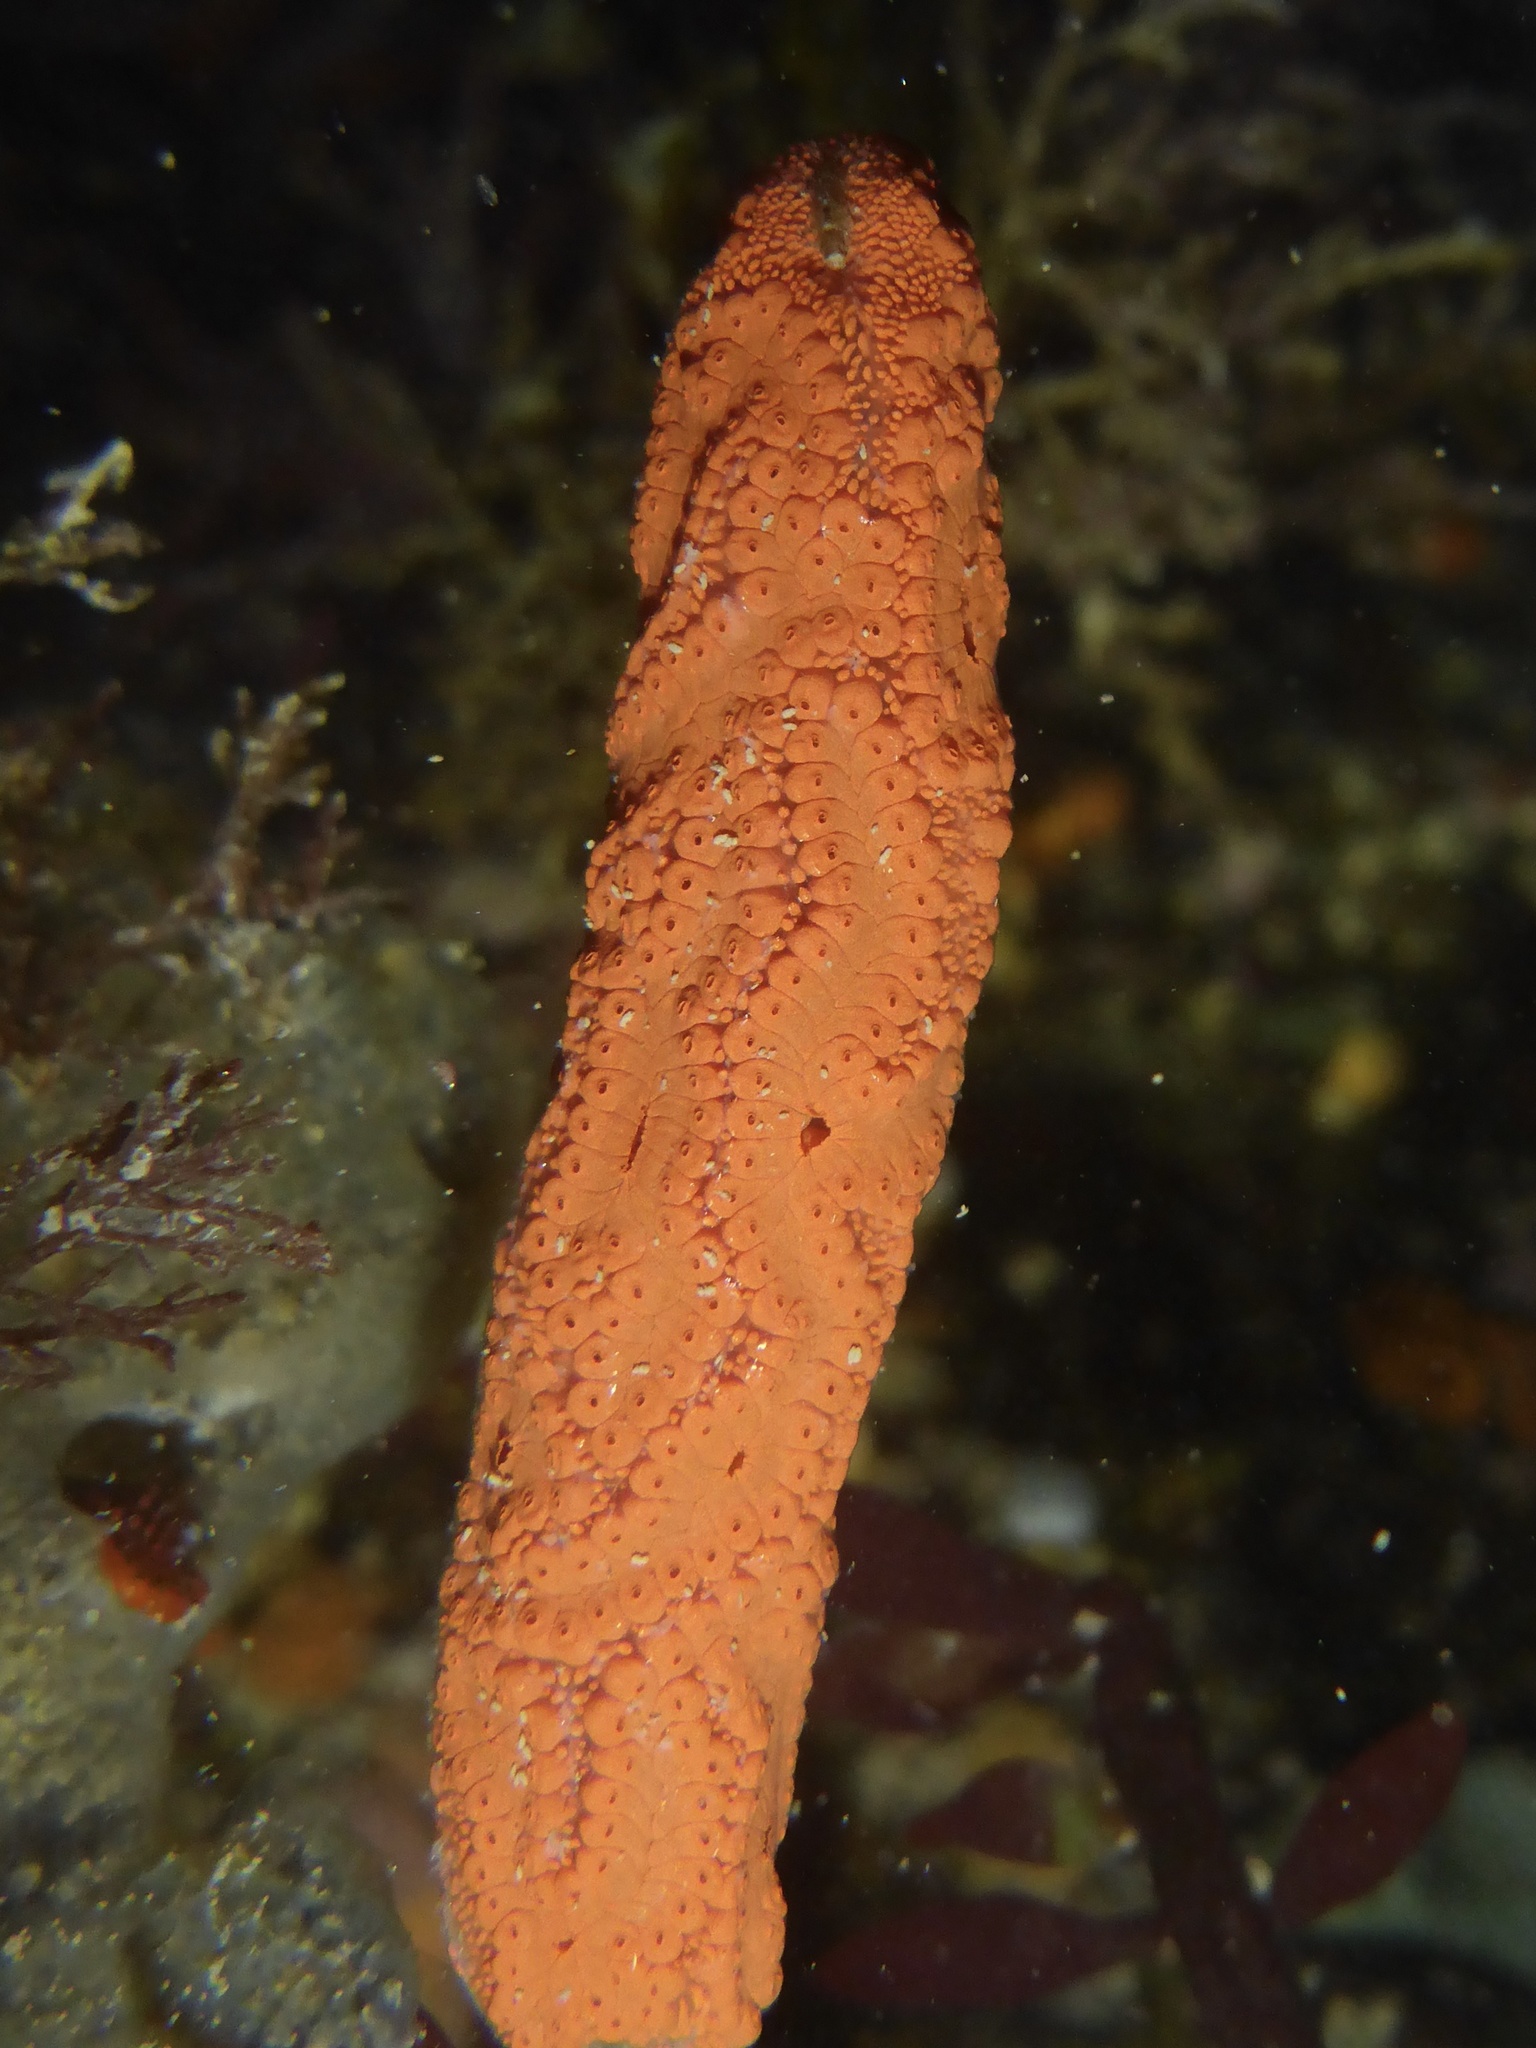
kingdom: Animalia
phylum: Chordata
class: Ascidiacea
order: Stolidobranchia
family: Styelidae
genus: Botrylloides
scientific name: Botrylloides violaceus
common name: Colonial sea squirt
